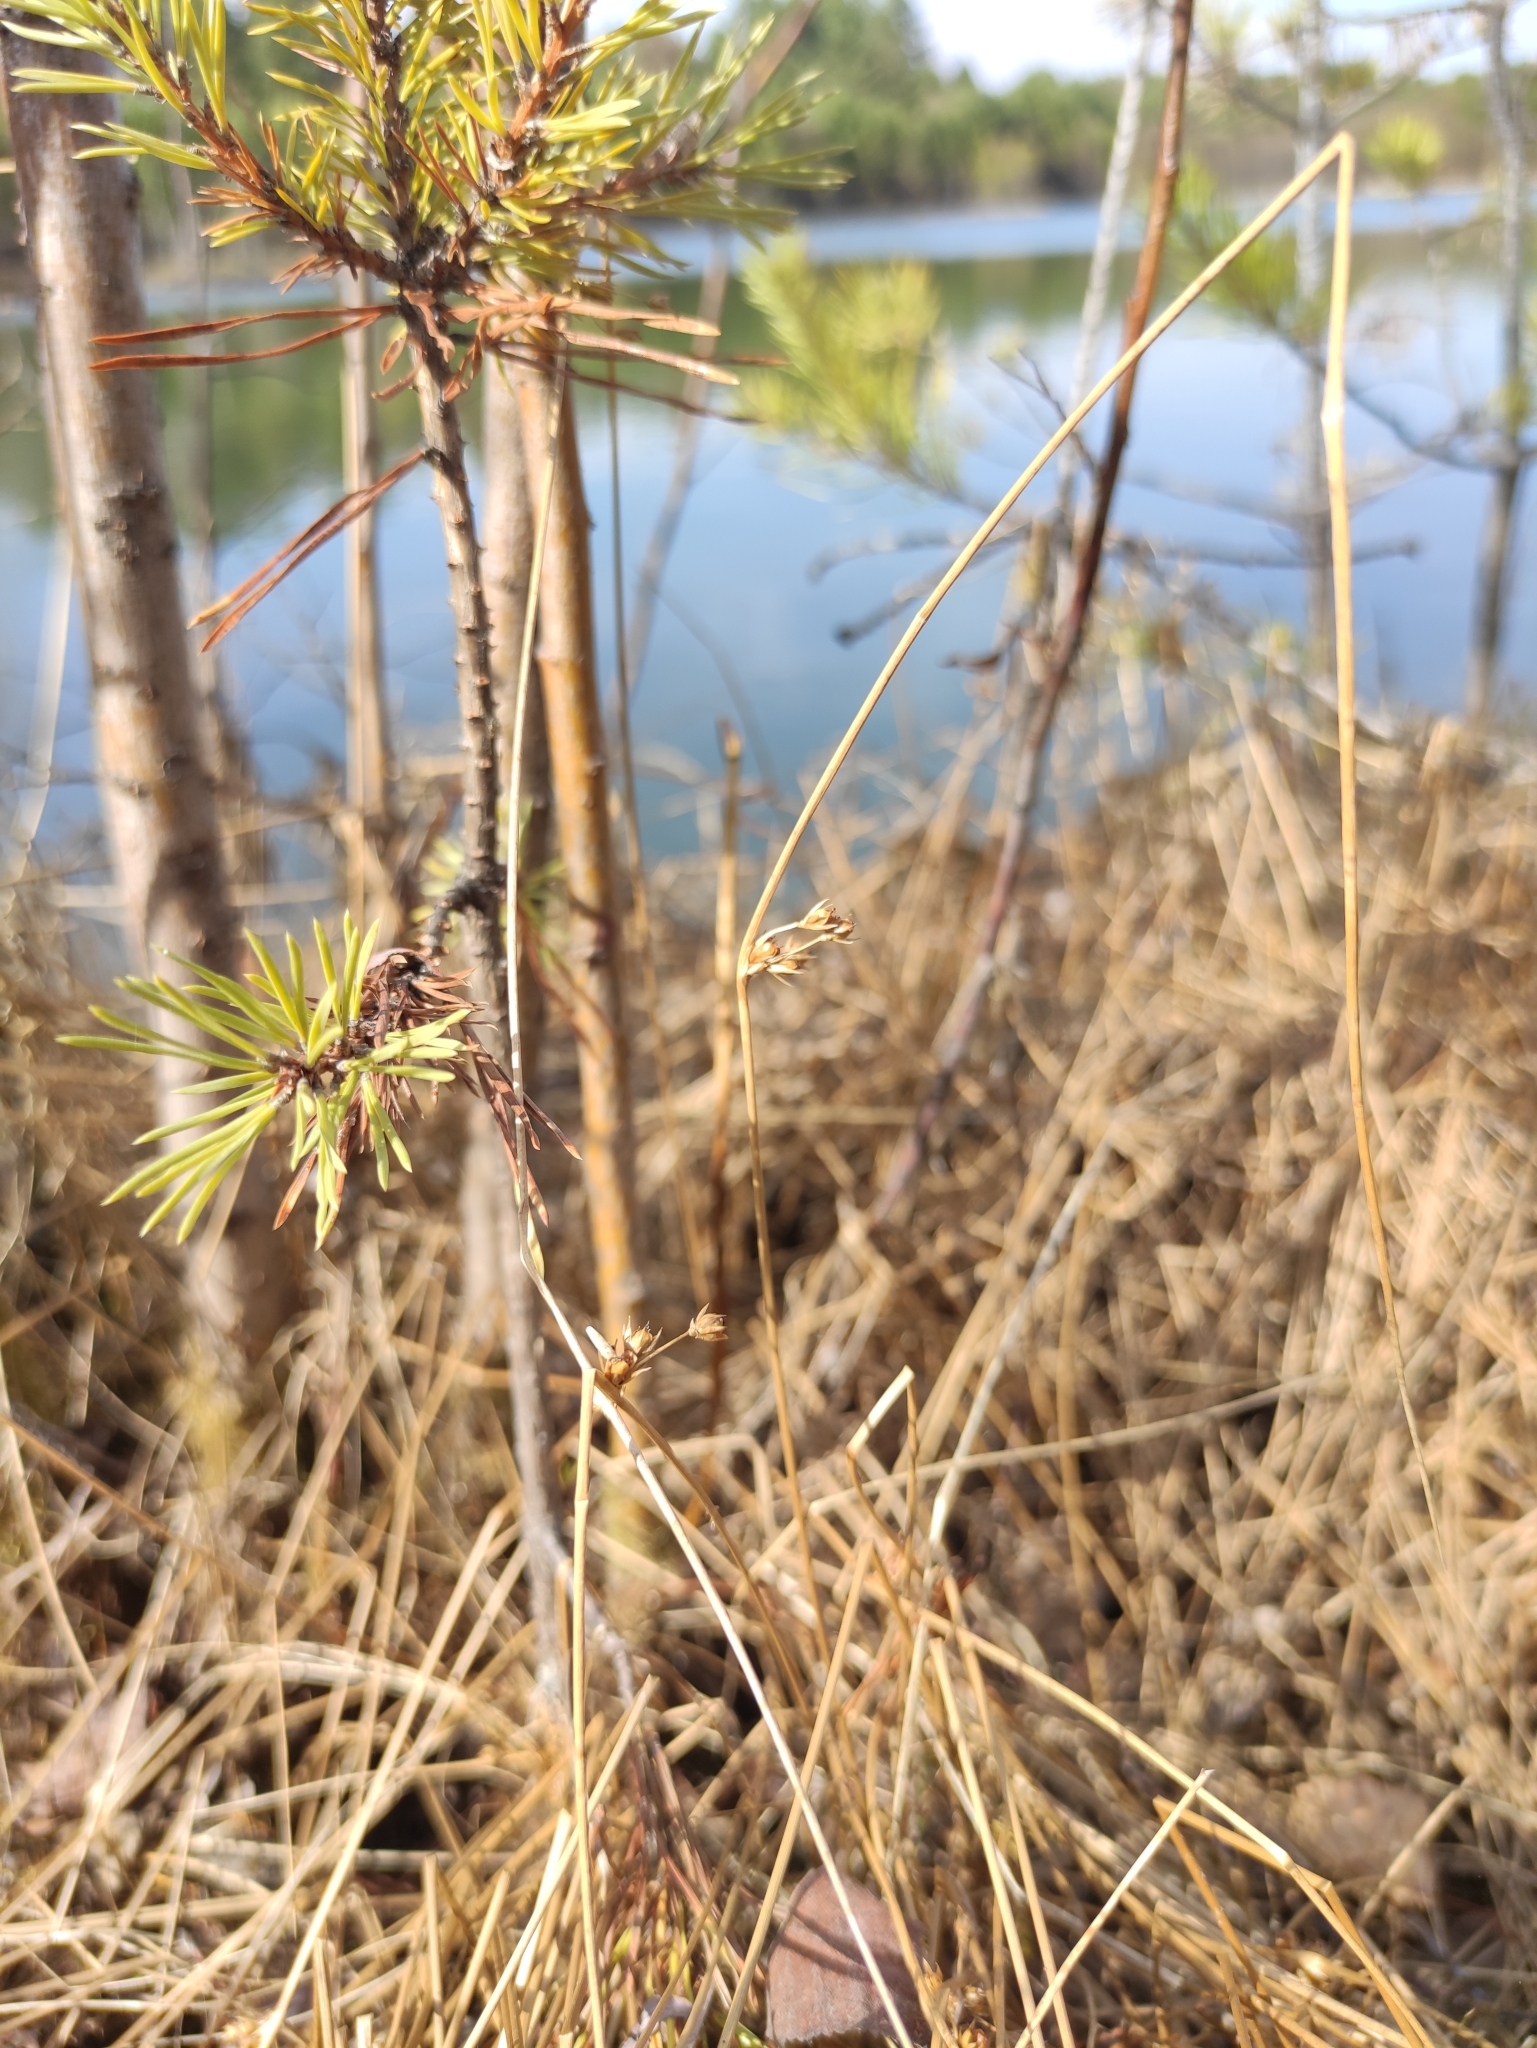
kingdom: Plantae
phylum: Tracheophyta
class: Liliopsida
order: Poales
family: Juncaceae
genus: Juncus
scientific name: Juncus filiformis
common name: Thread rush
